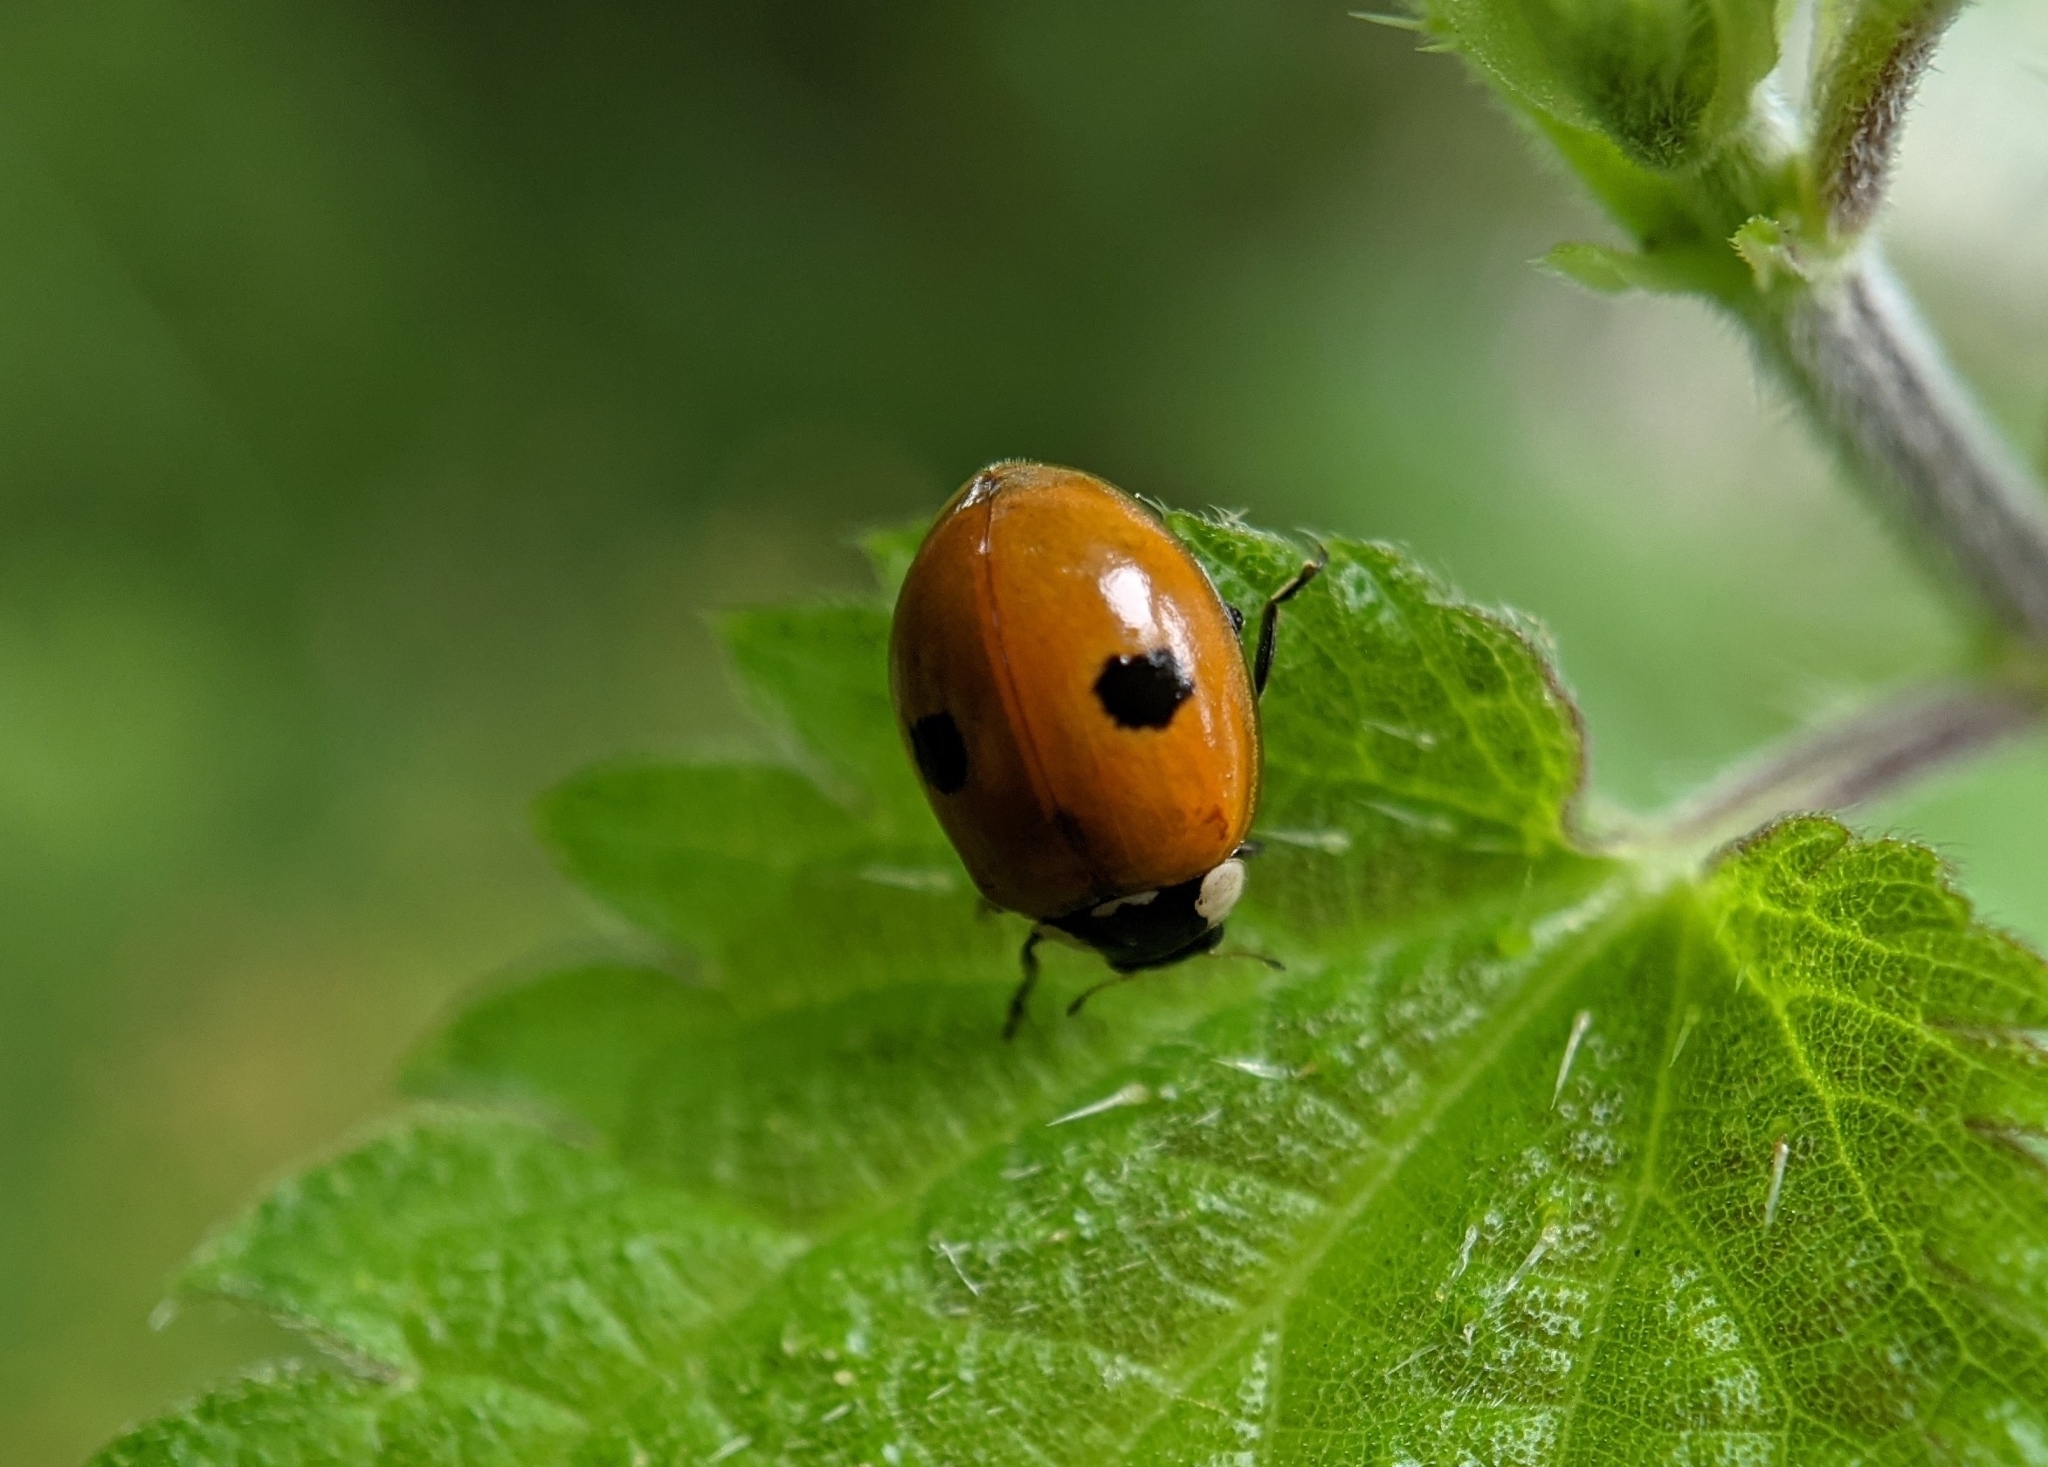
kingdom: Animalia
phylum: Arthropoda
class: Insecta
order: Coleoptera
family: Coccinellidae
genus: Adalia
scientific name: Adalia bipunctata
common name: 2-spot ladybird
